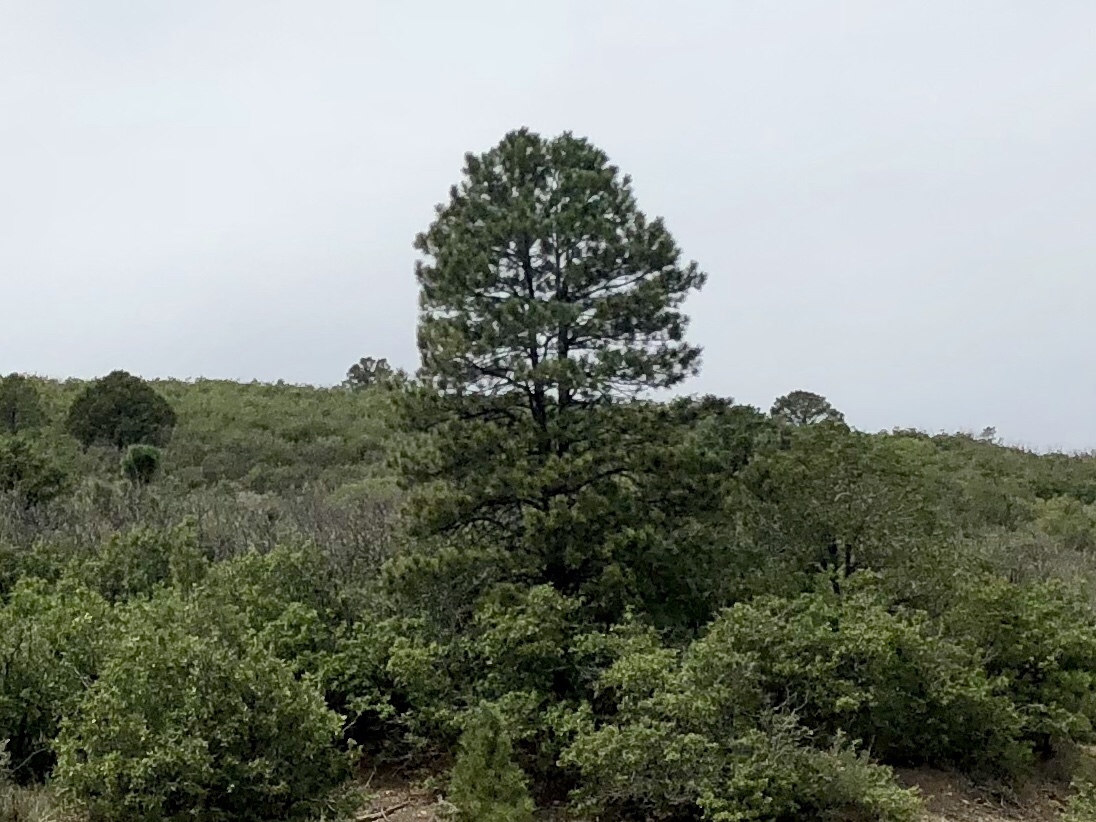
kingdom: Plantae
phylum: Tracheophyta
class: Pinopsida
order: Pinales
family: Pinaceae
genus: Pinus
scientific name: Pinus ponderosa
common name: Western yellow-pine
